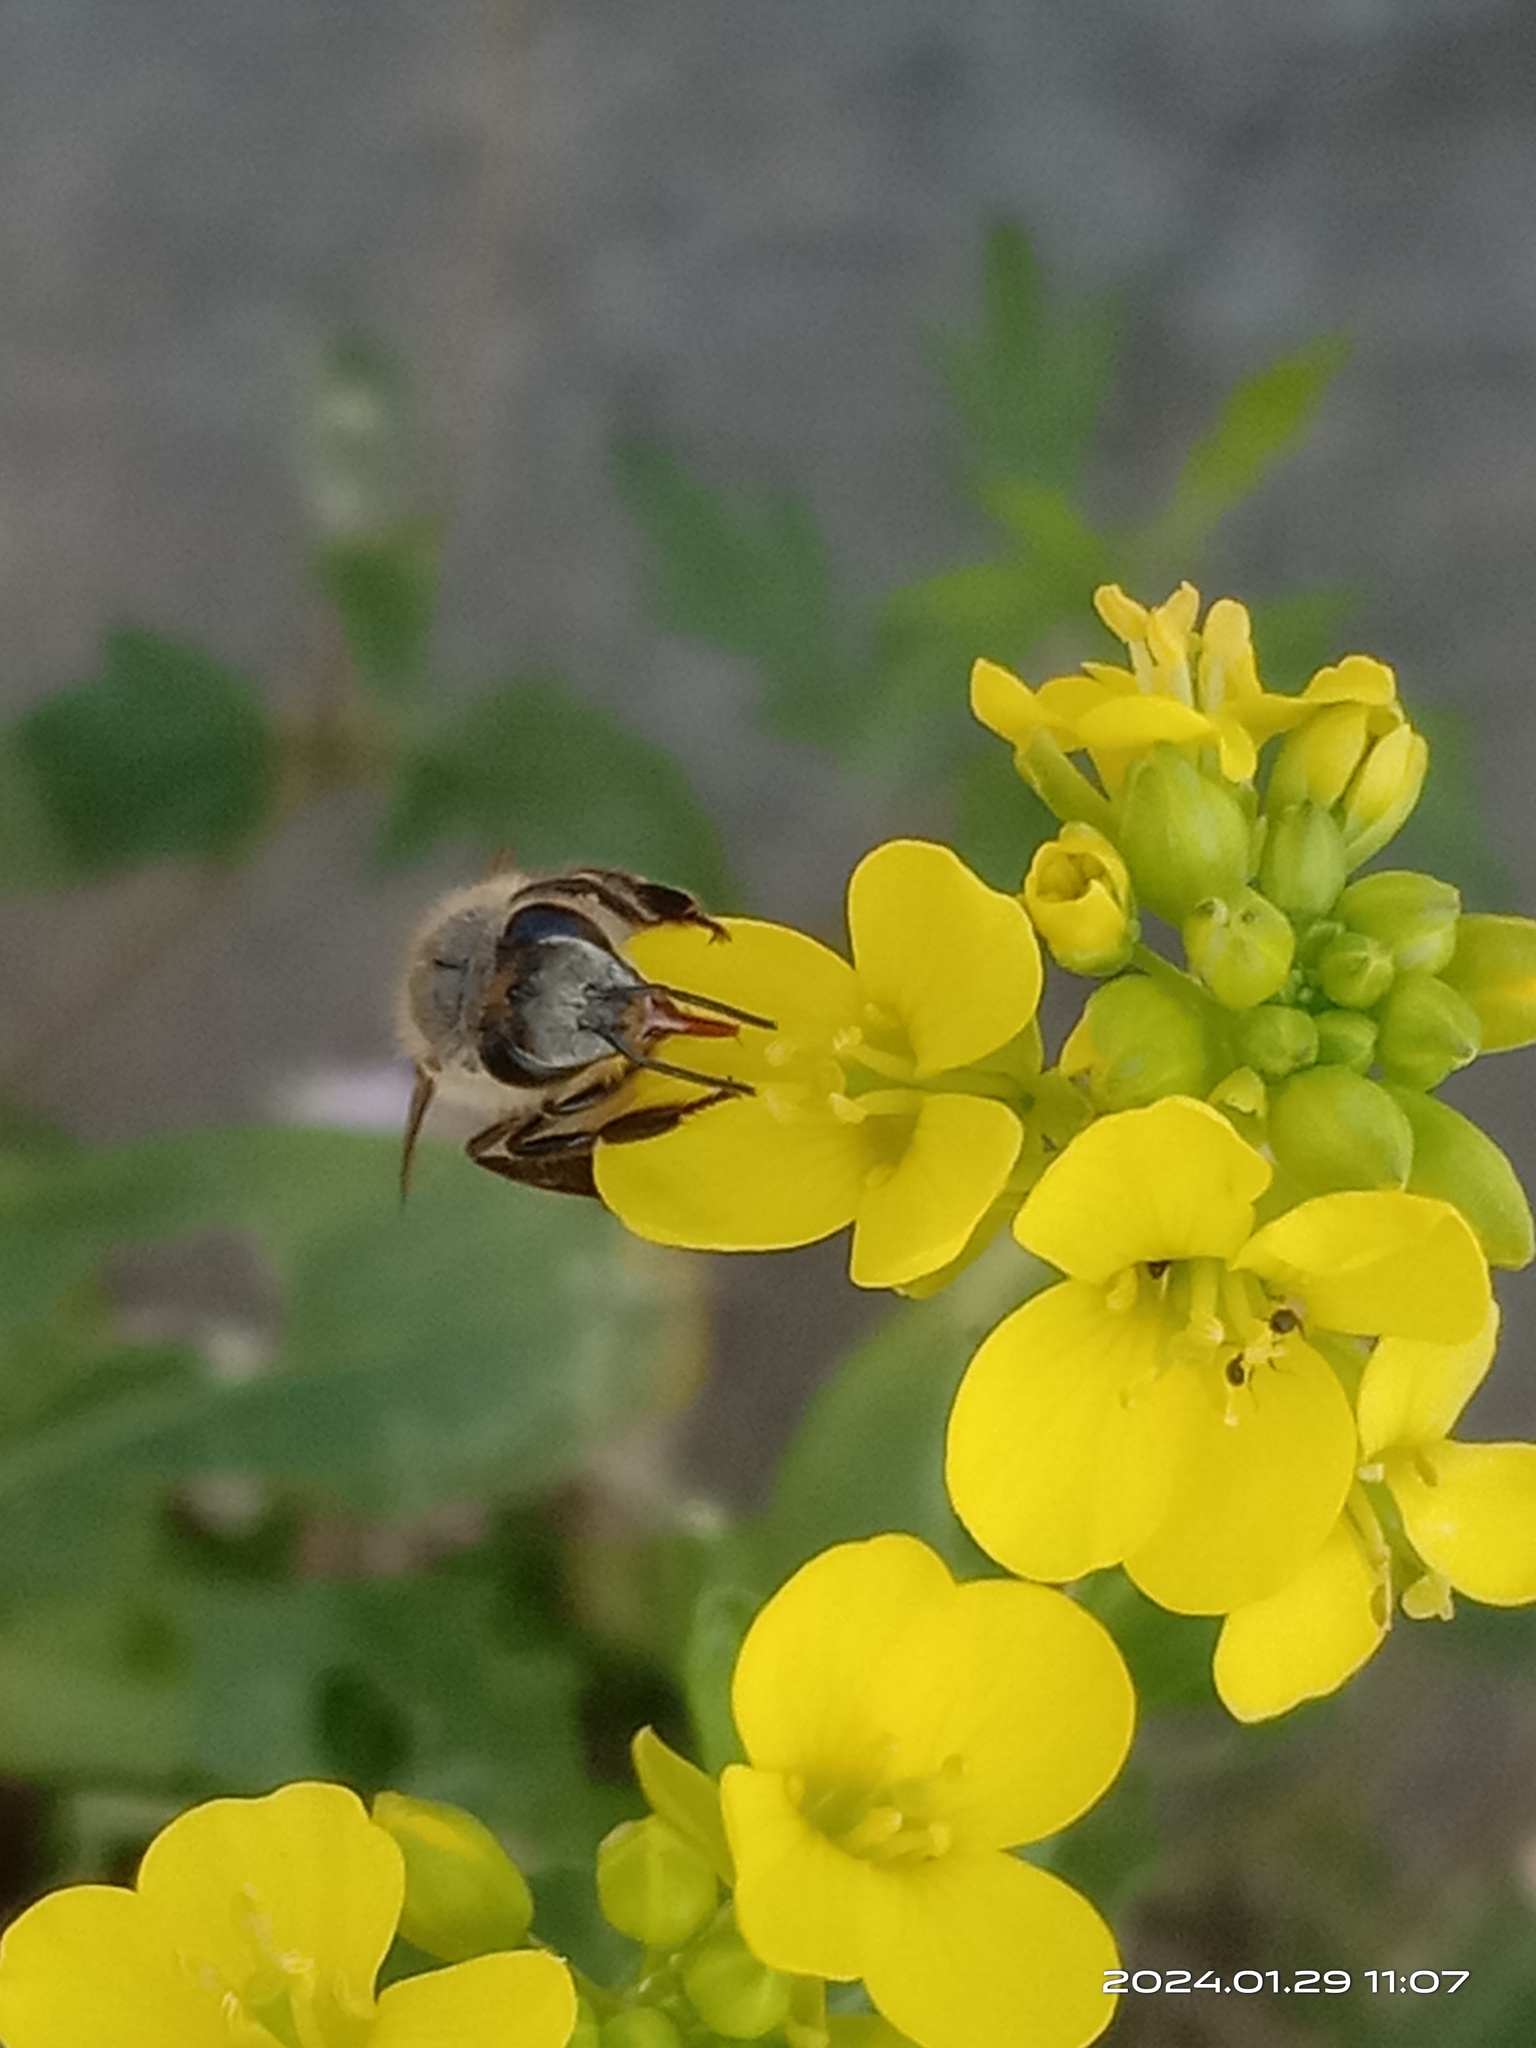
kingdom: Animalia
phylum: Arthropoda
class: Insecta
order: Hymenoptera
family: Apidae
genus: Apis
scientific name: Apis cerana
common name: Honey bee
